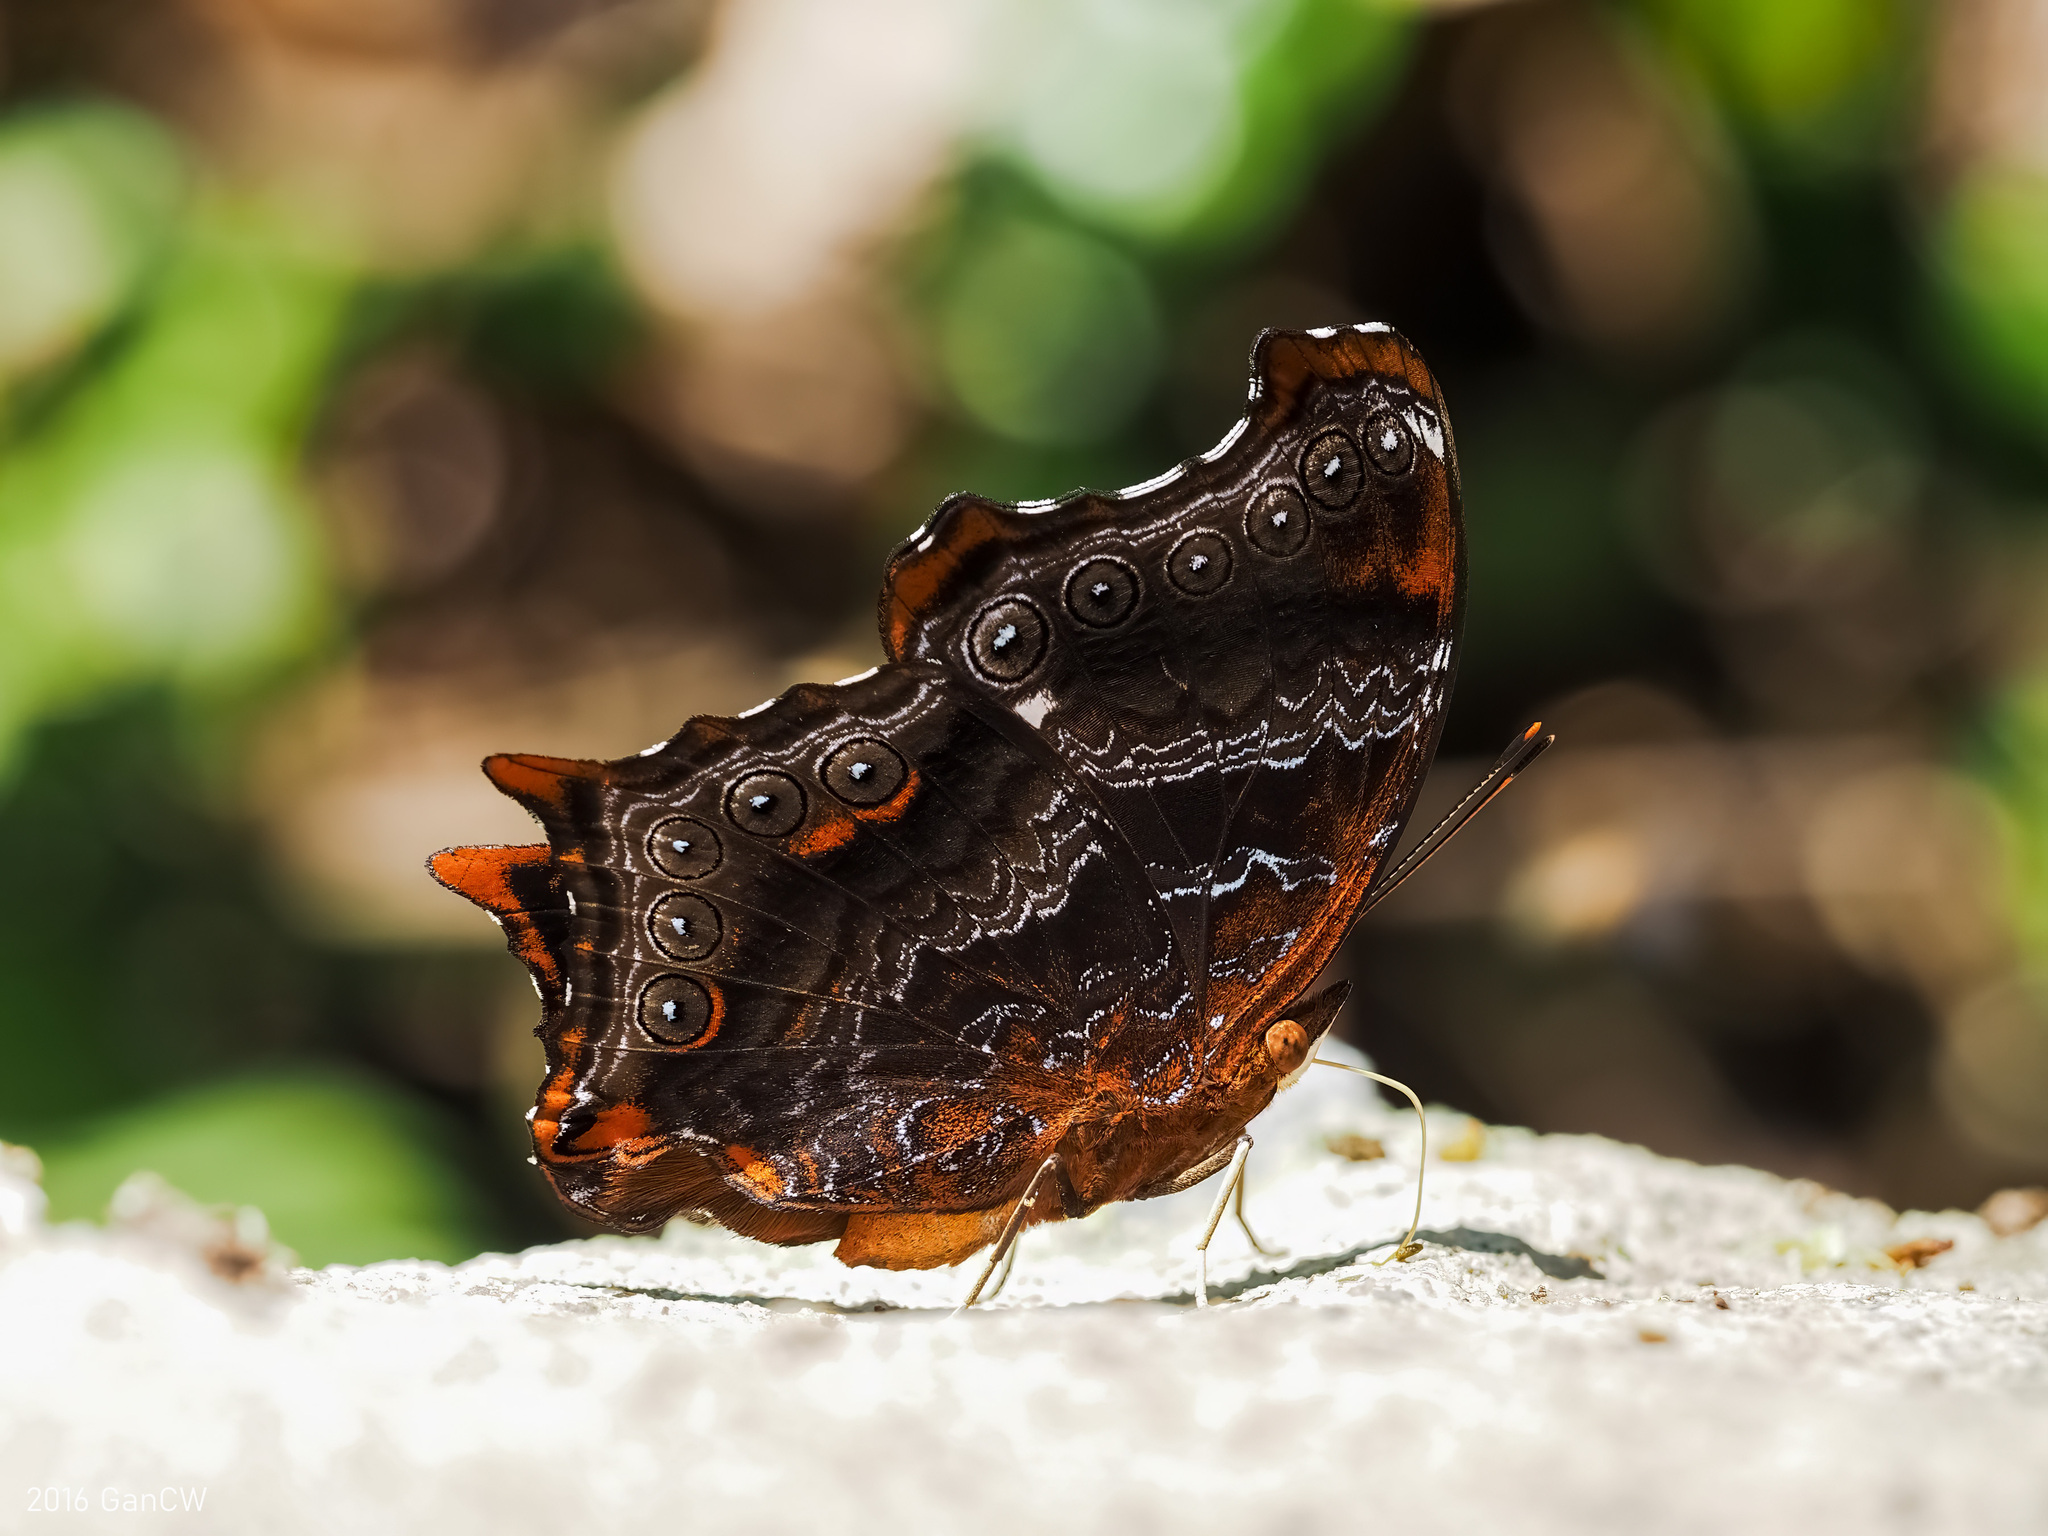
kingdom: Animalia
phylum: Arthropoda
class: Insecta
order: Lepidoptera
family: Nymphalidae
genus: Rhinopalpa
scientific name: Rhinopalpa polynice
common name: Wizard
